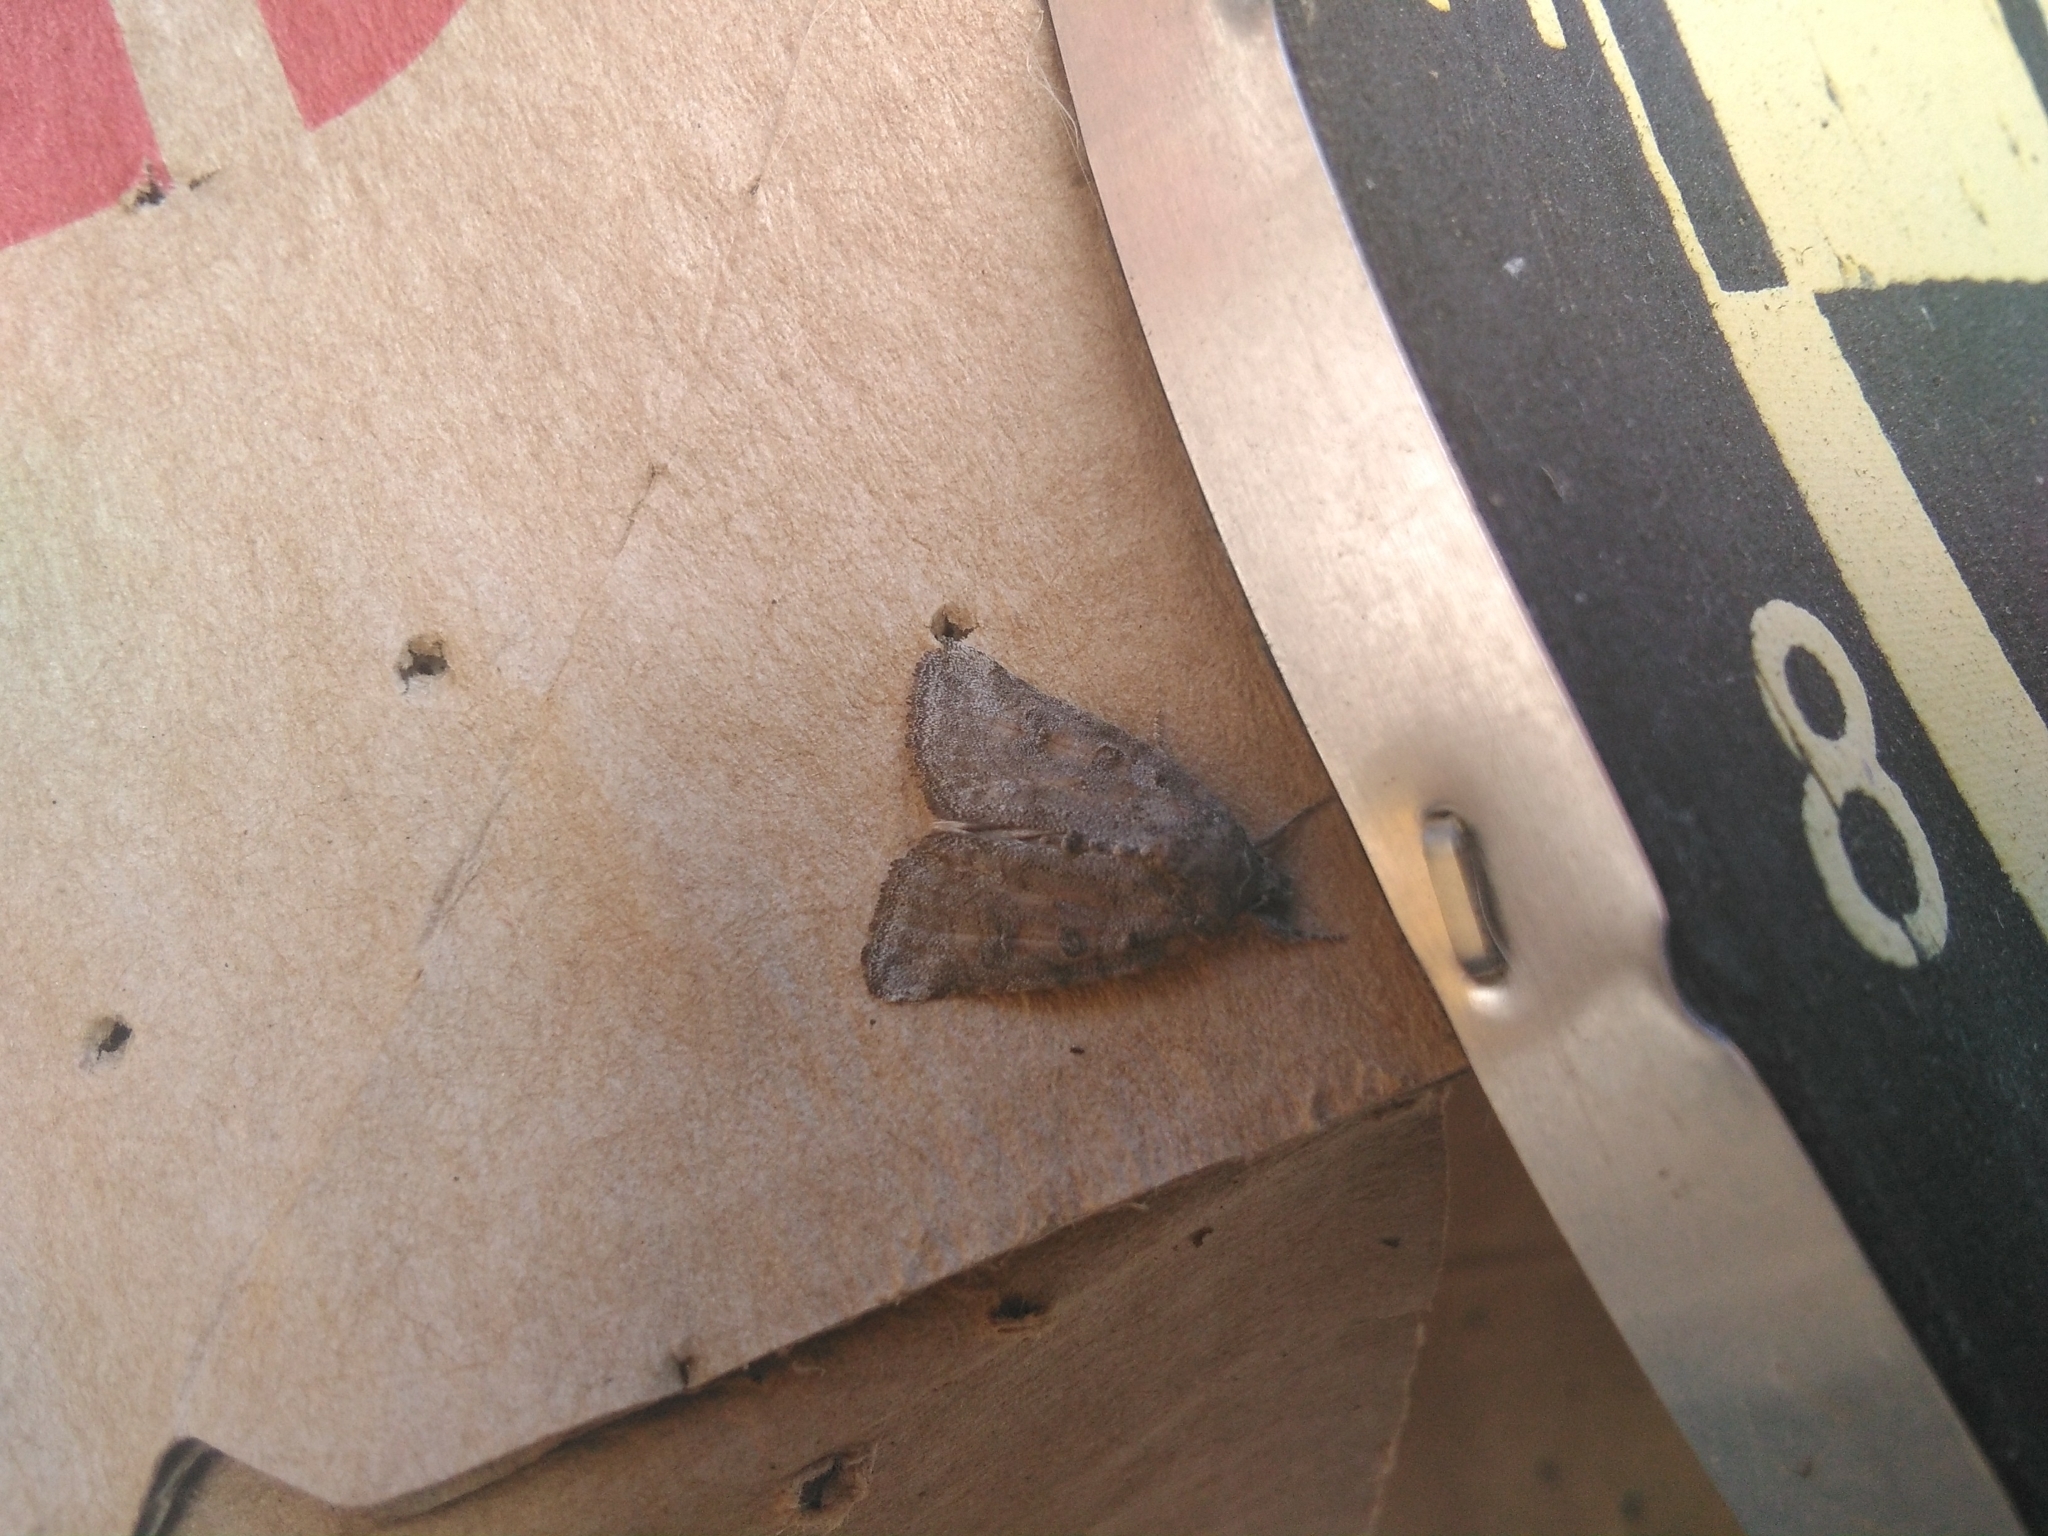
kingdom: Animalia
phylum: Arthropoda
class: Insecta
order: Lepidoptera
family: Noctuidae
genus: Bryophila
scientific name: Bryophila ravula
